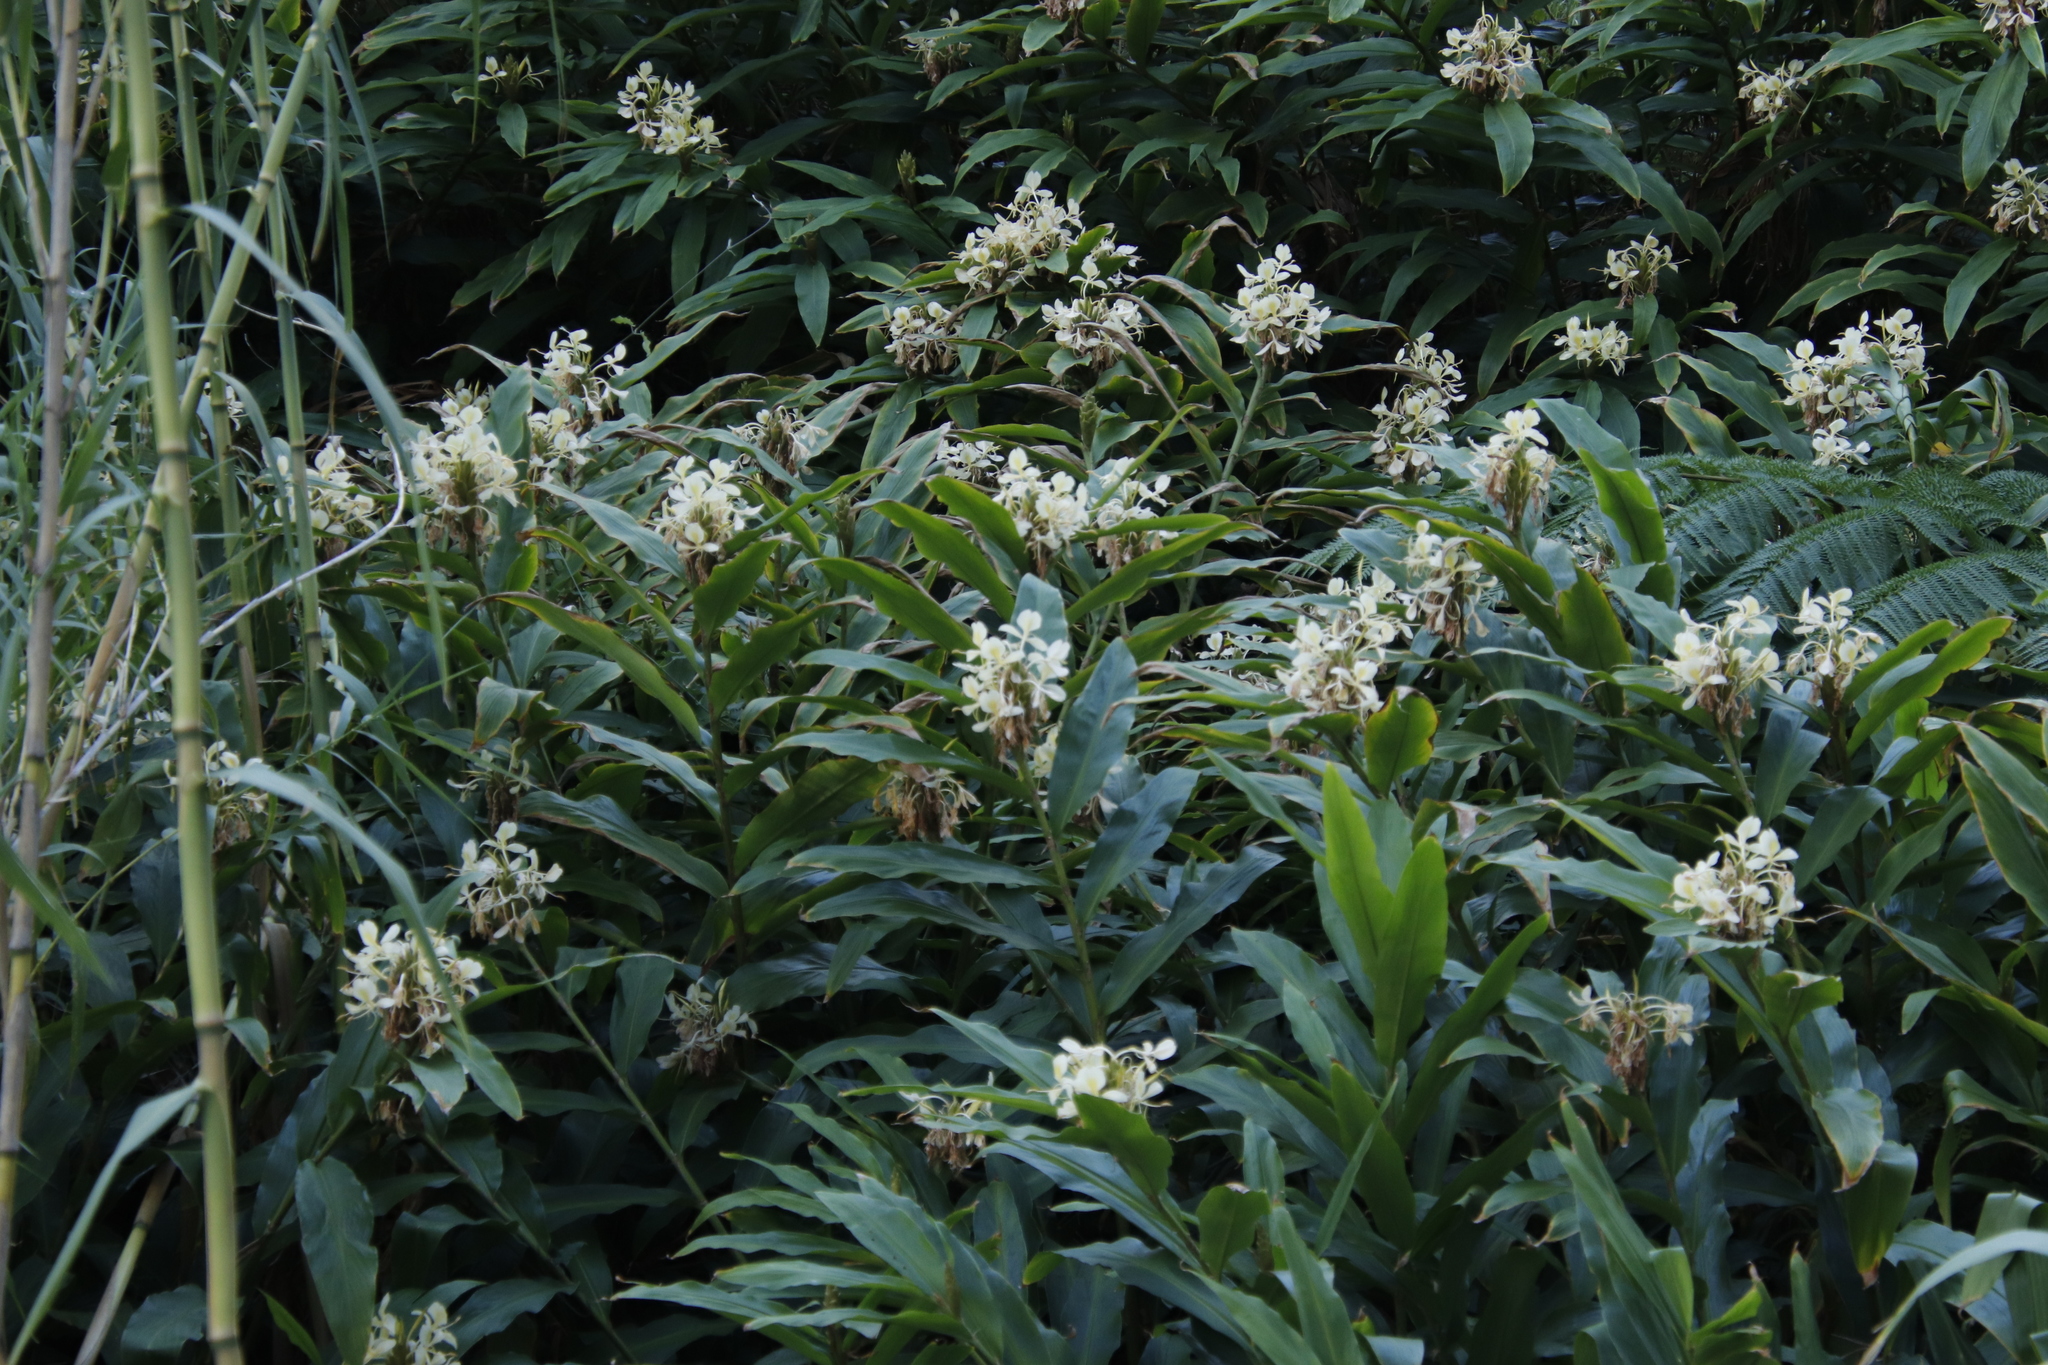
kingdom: Plantae
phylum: Tracheophyta
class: Liliopsida
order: Zingiberales
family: Zingiberaceae
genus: Hedychium
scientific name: Hedychium flavescens
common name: Yellow ginger
